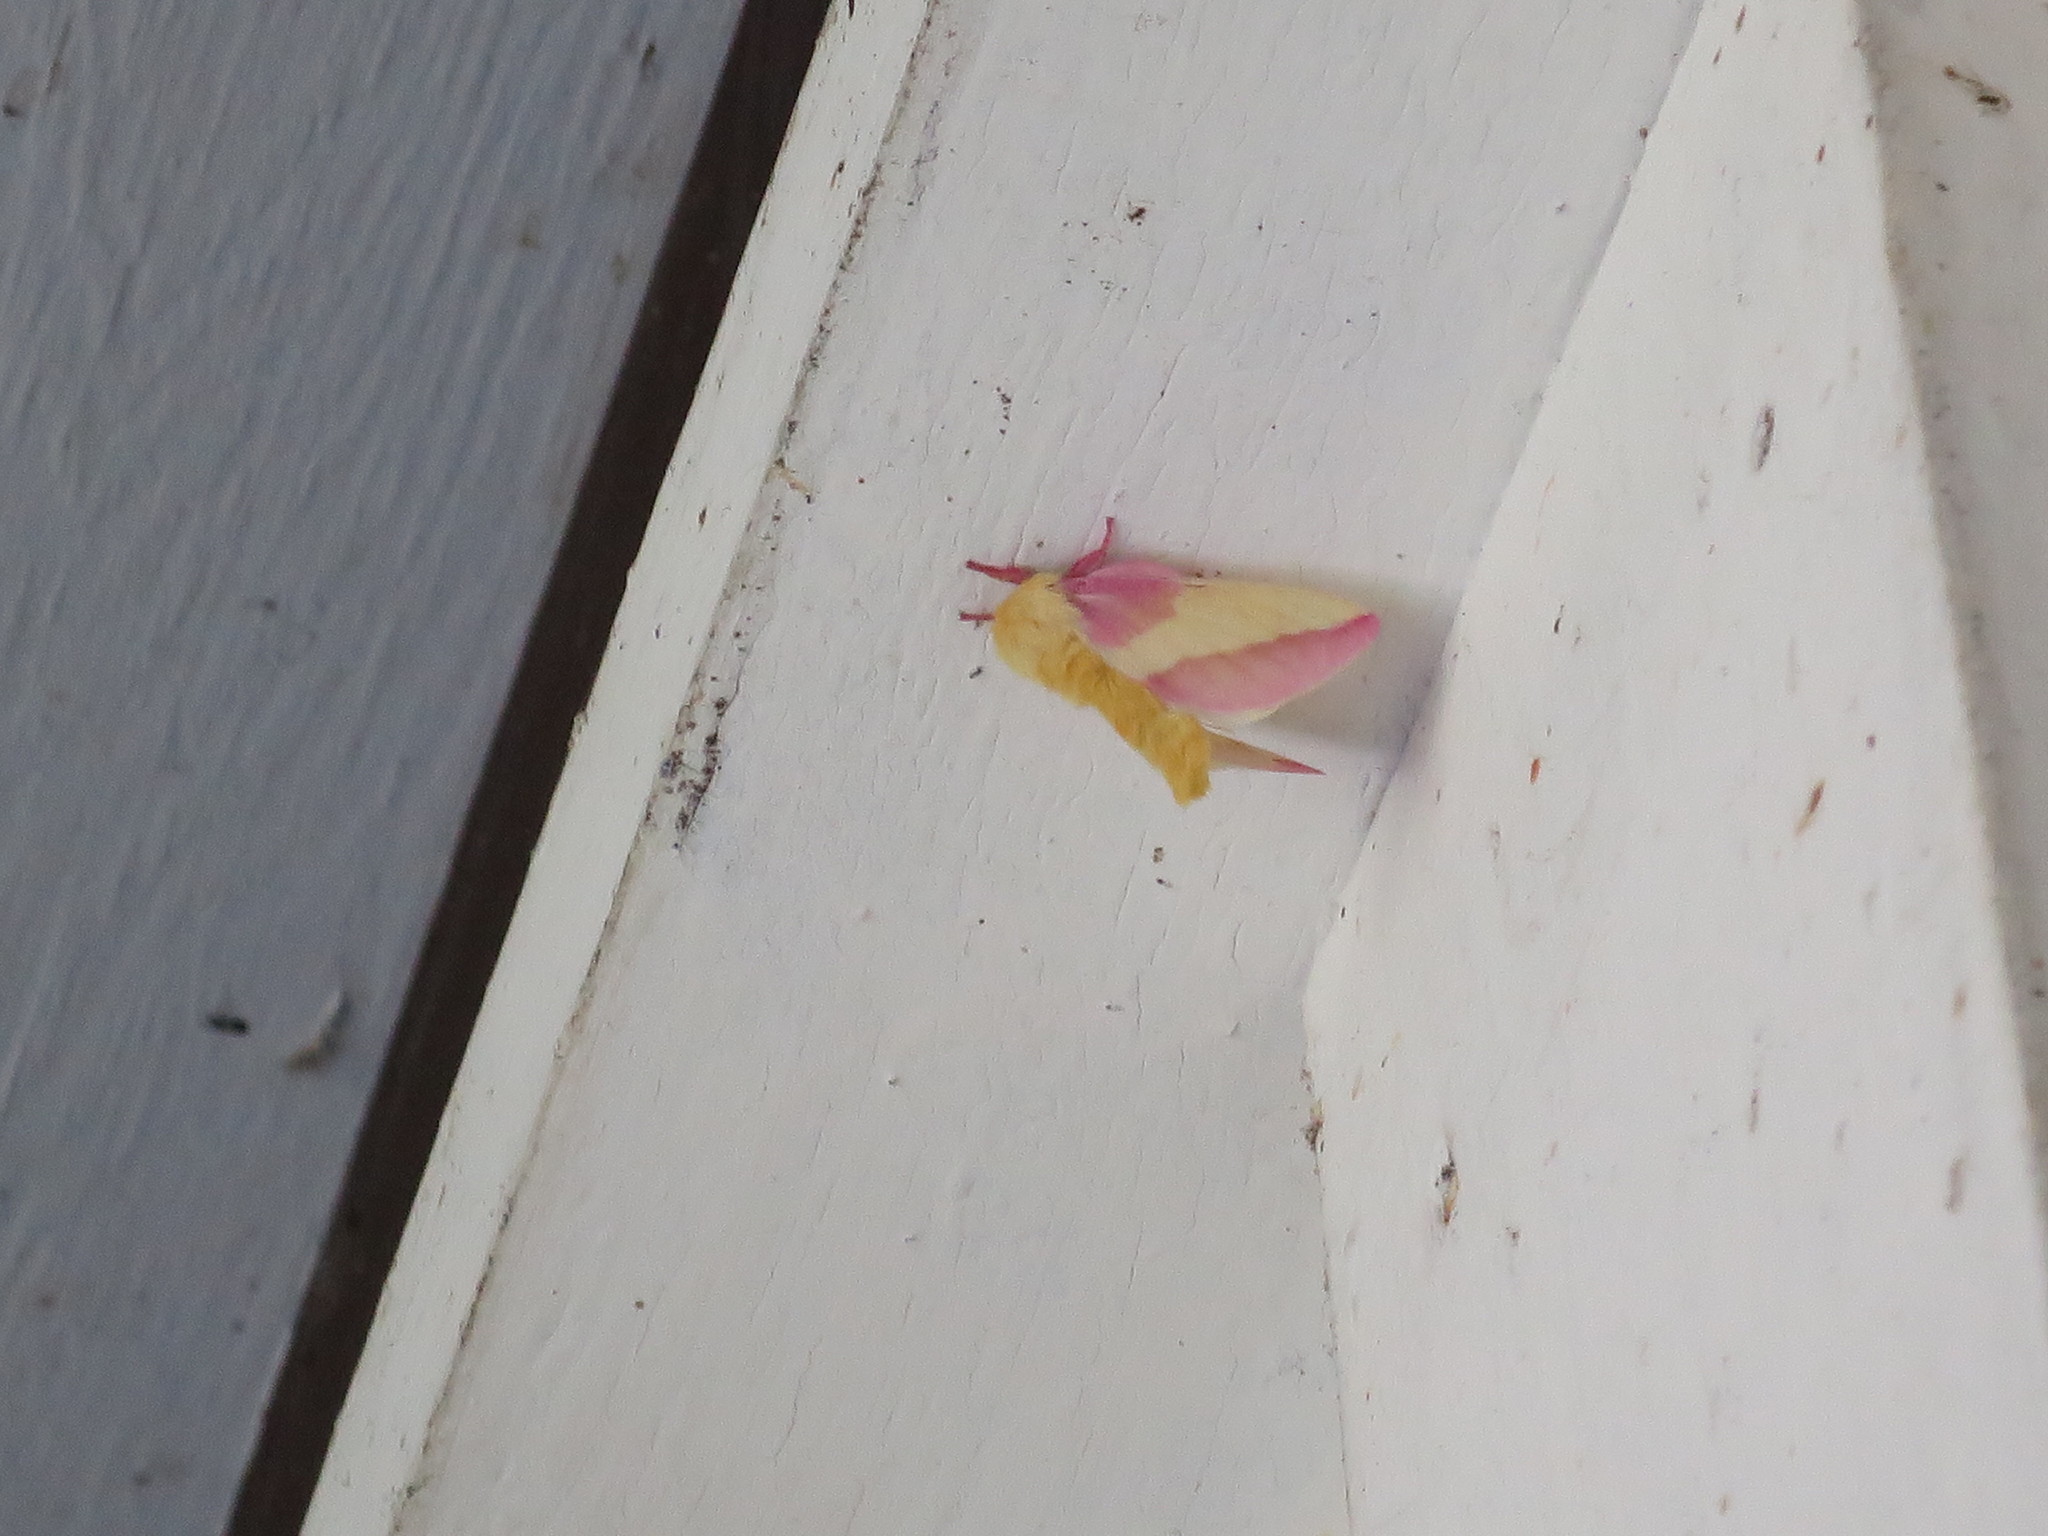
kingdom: Animalia
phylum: Arthropoda
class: Insecta
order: Lepidoptera
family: Saturniidae
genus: Dryocampa
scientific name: Dryocampa rubicunda
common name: Rosy maple moth
